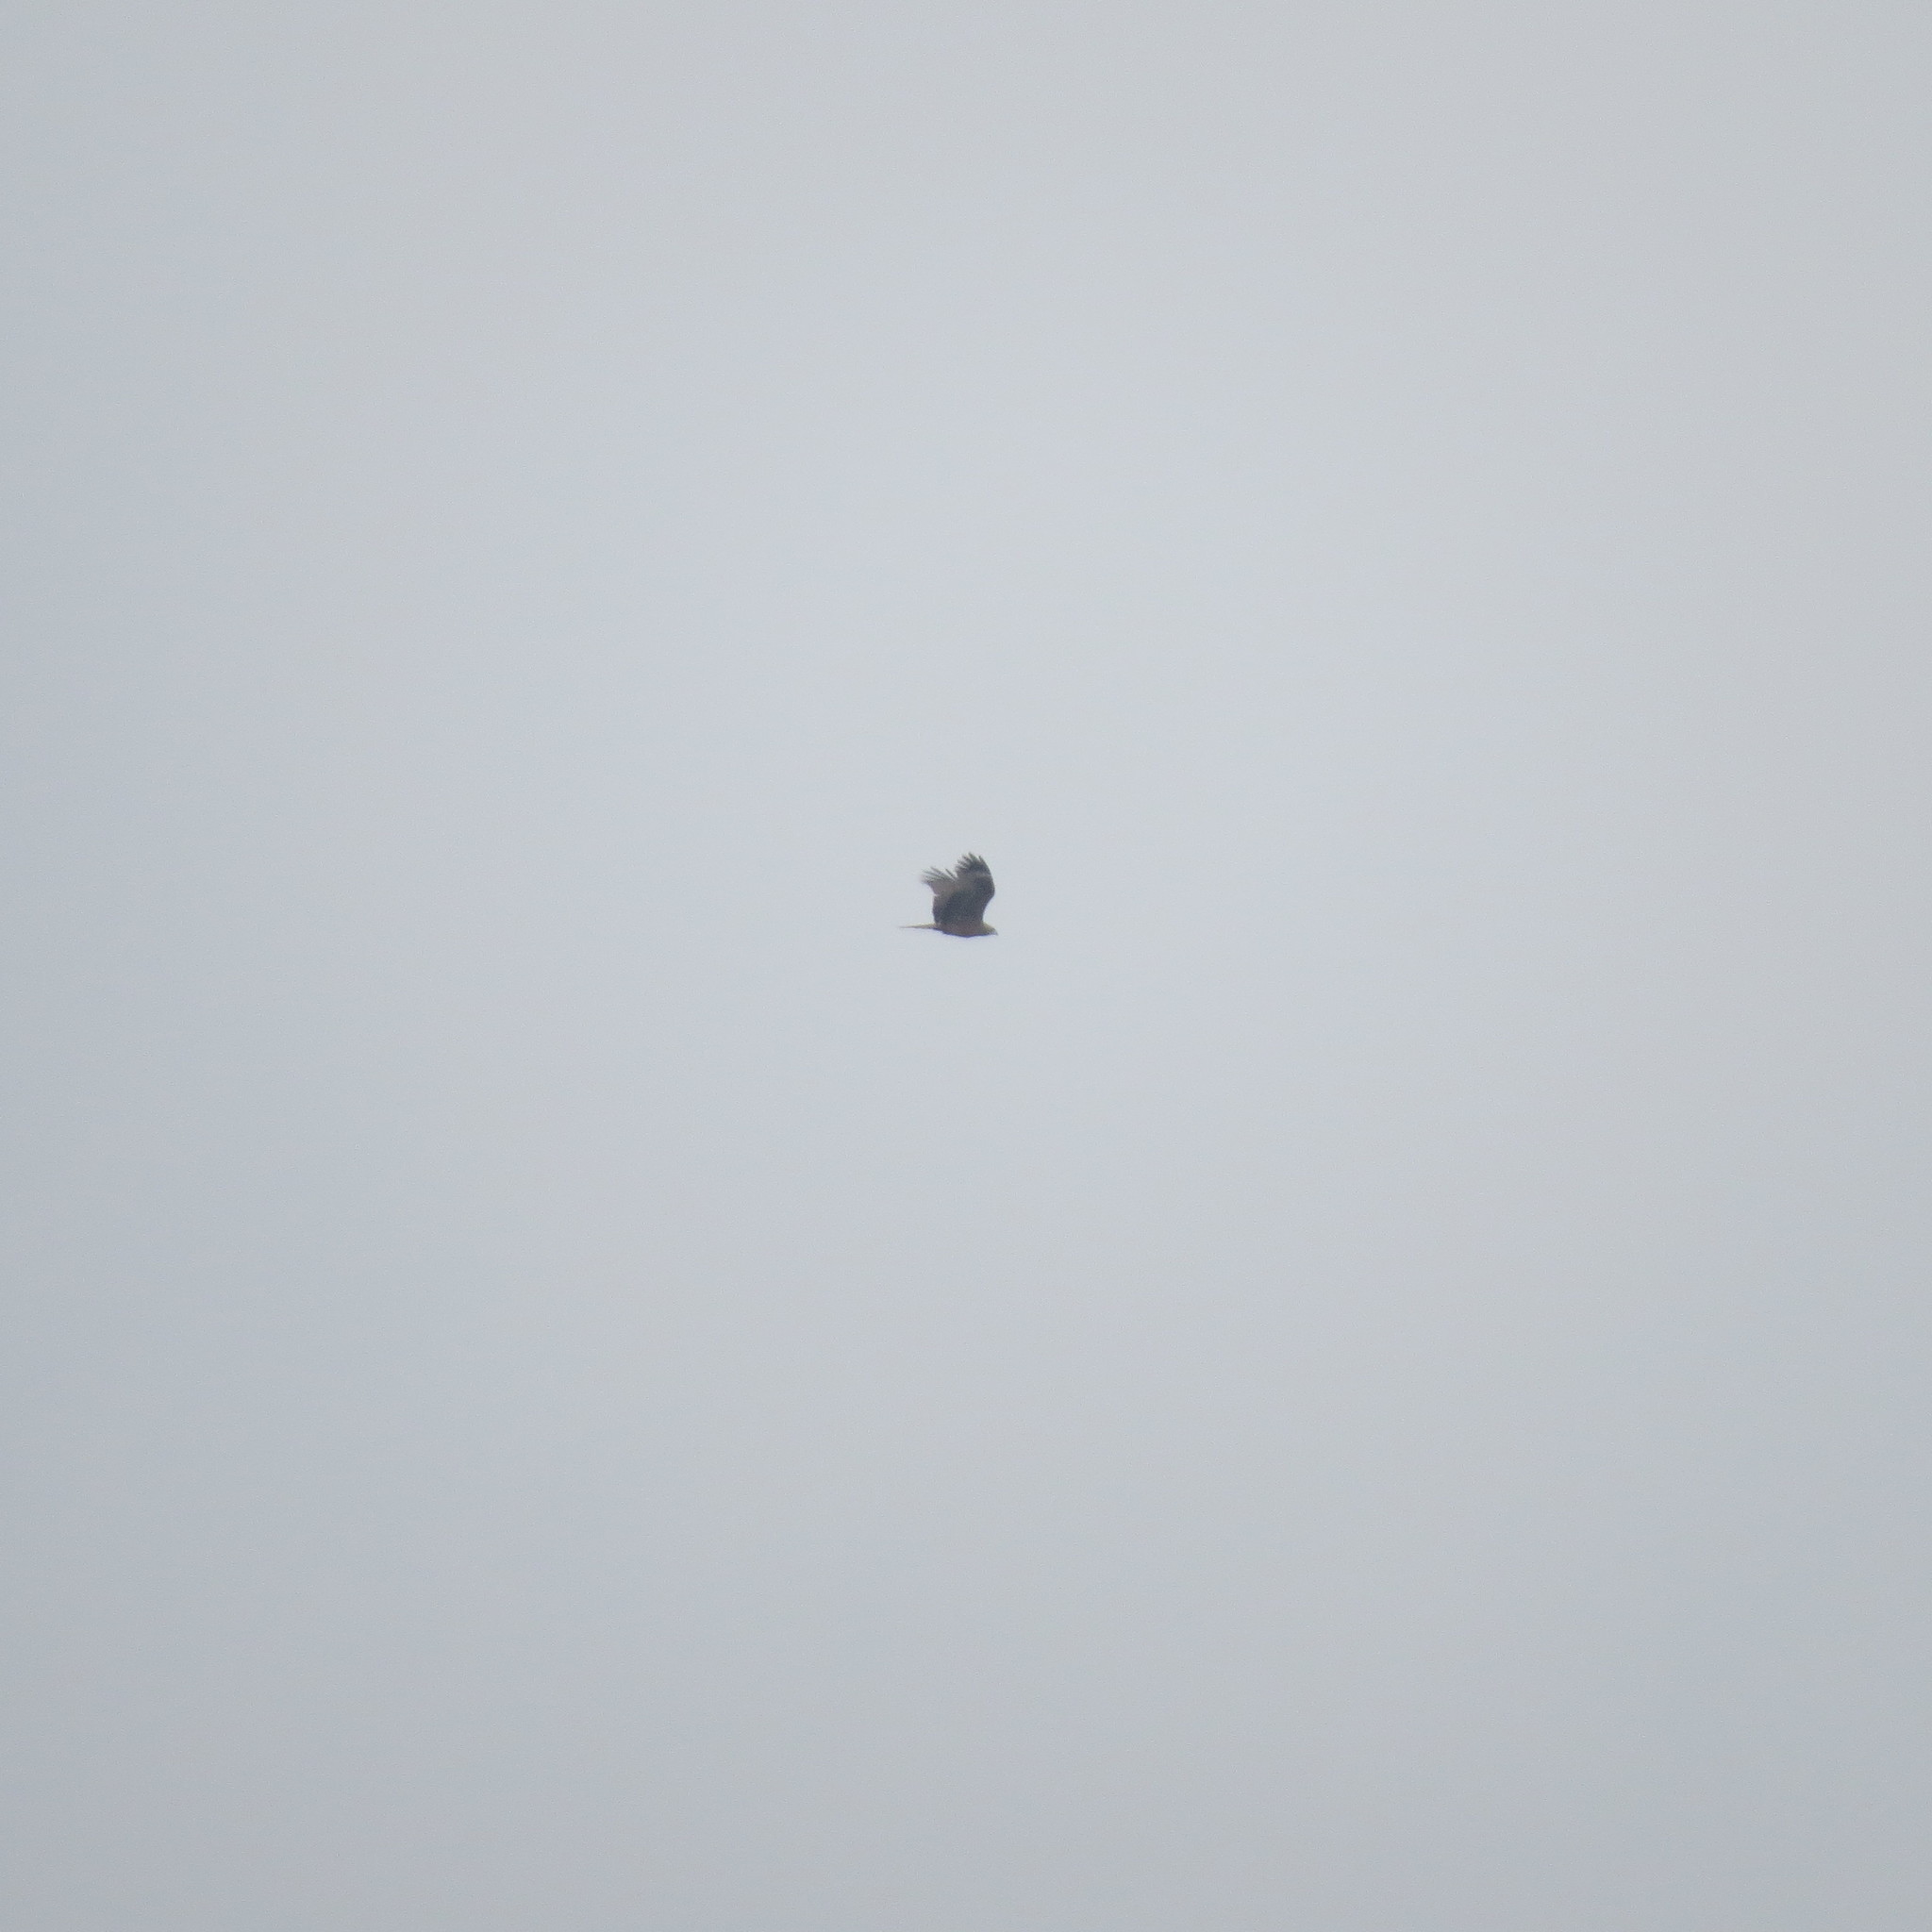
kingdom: Animalia
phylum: Chordata
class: Aves
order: Accipitriformes
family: Accipitridae
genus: Milvus
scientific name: Milvus migrans
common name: Black kite
